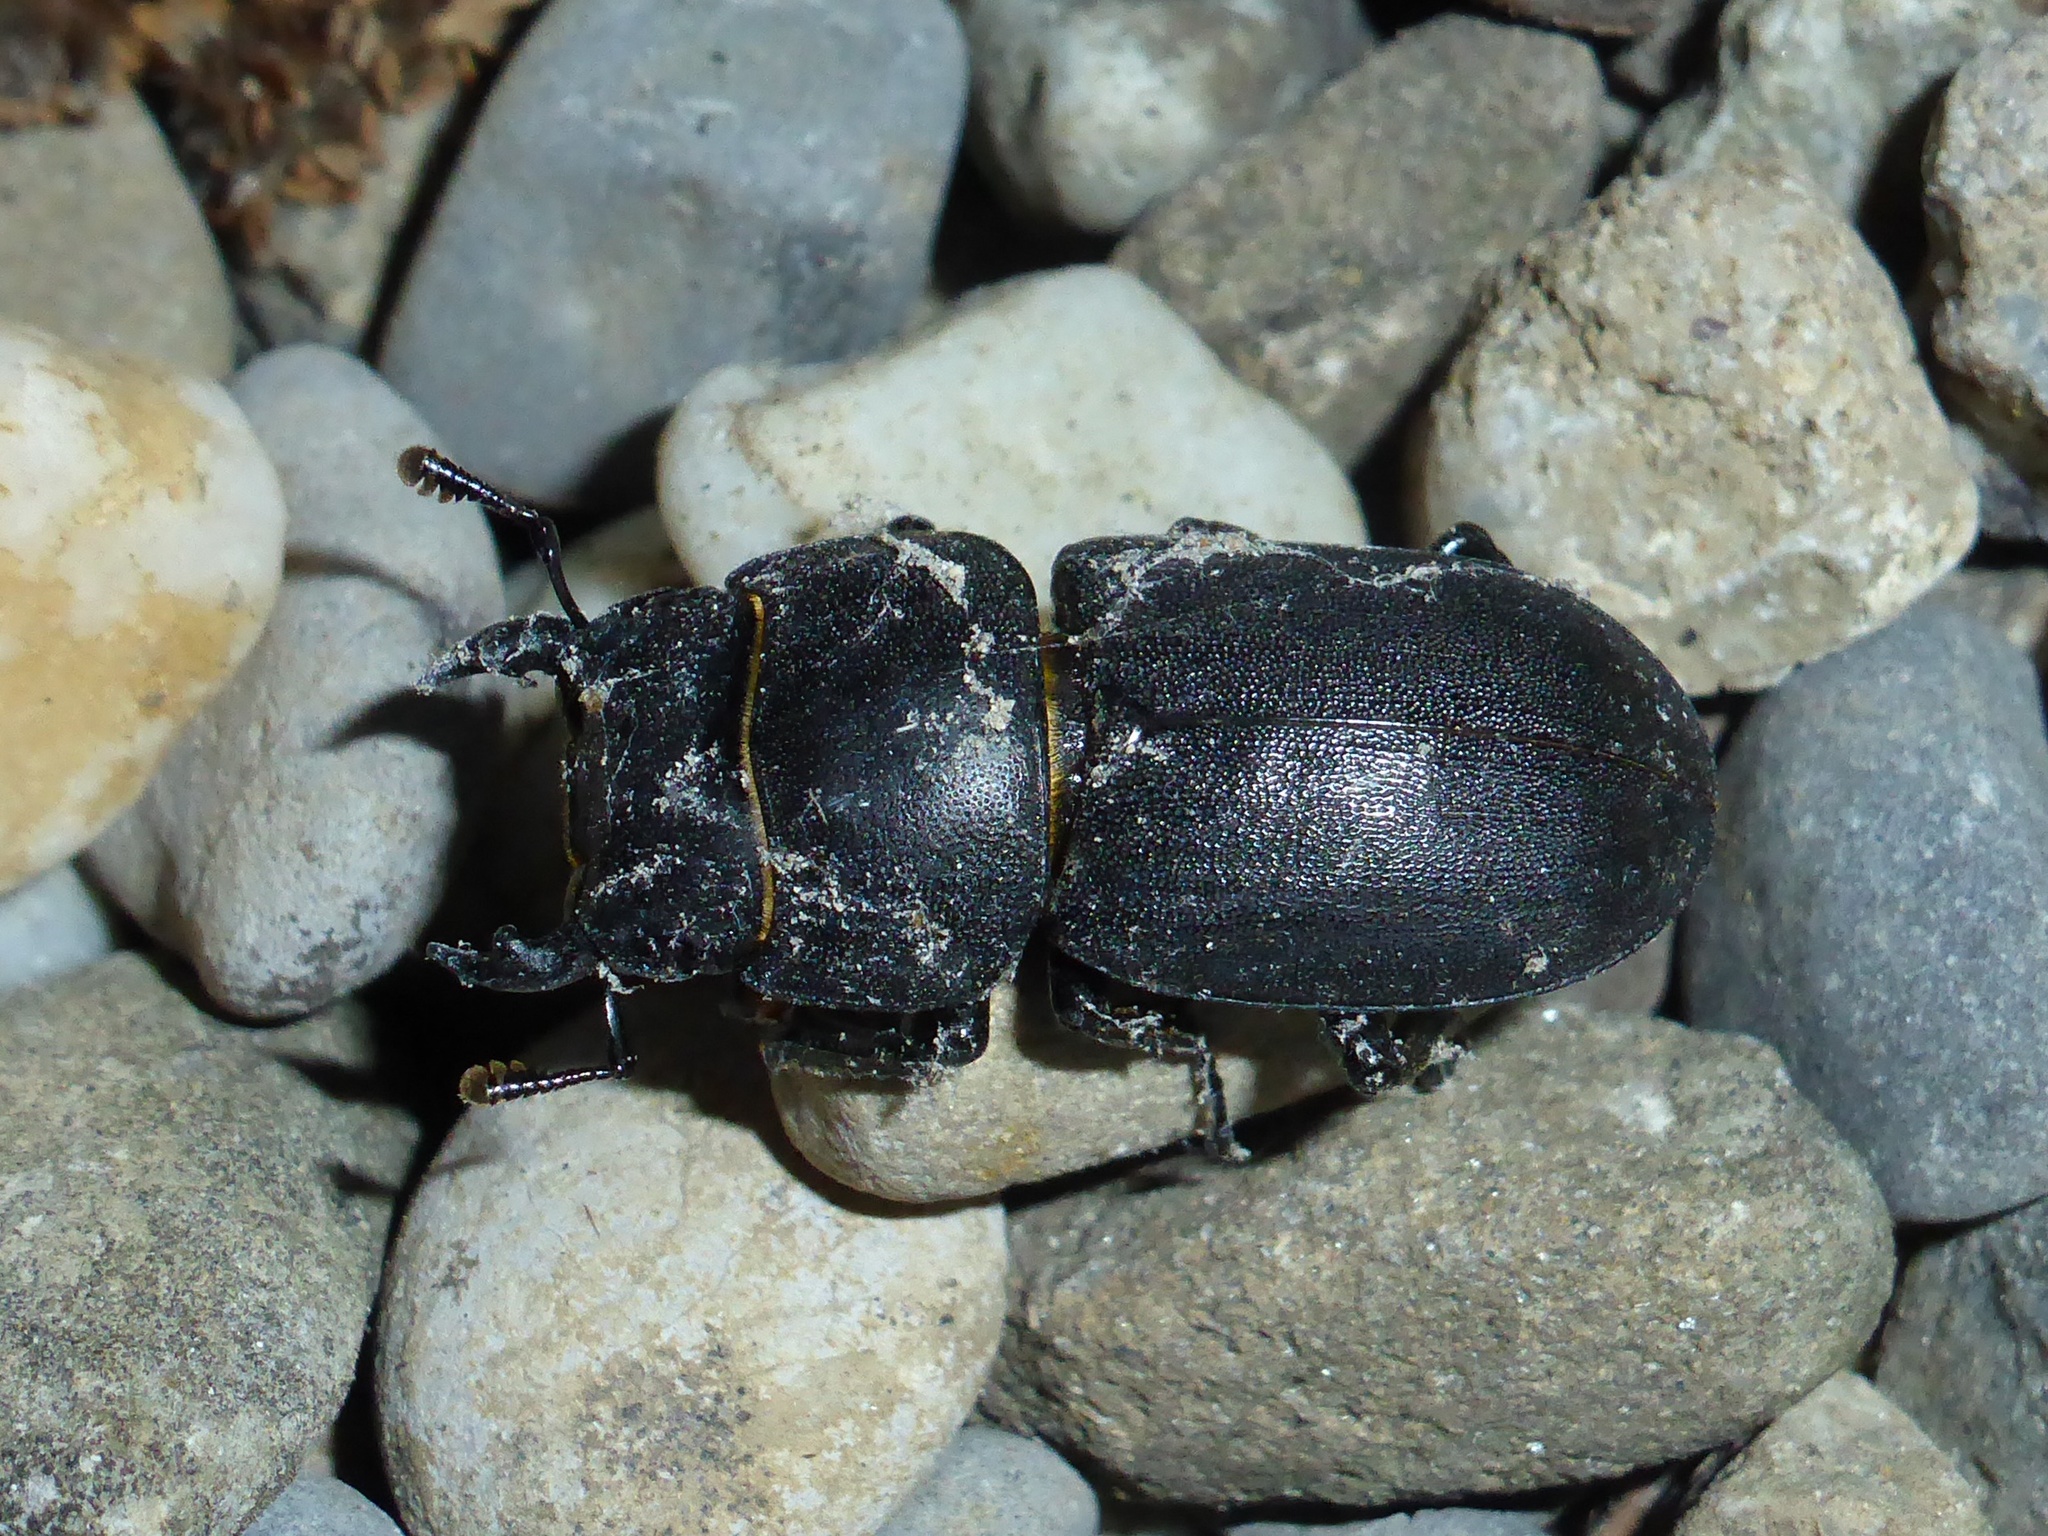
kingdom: Animalia
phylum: Arthropoda
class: Insecta
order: Coleoptera
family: Lucanidae
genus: Dorcus
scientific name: Dorcus parallelipipedus
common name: Lesser stag beetle
